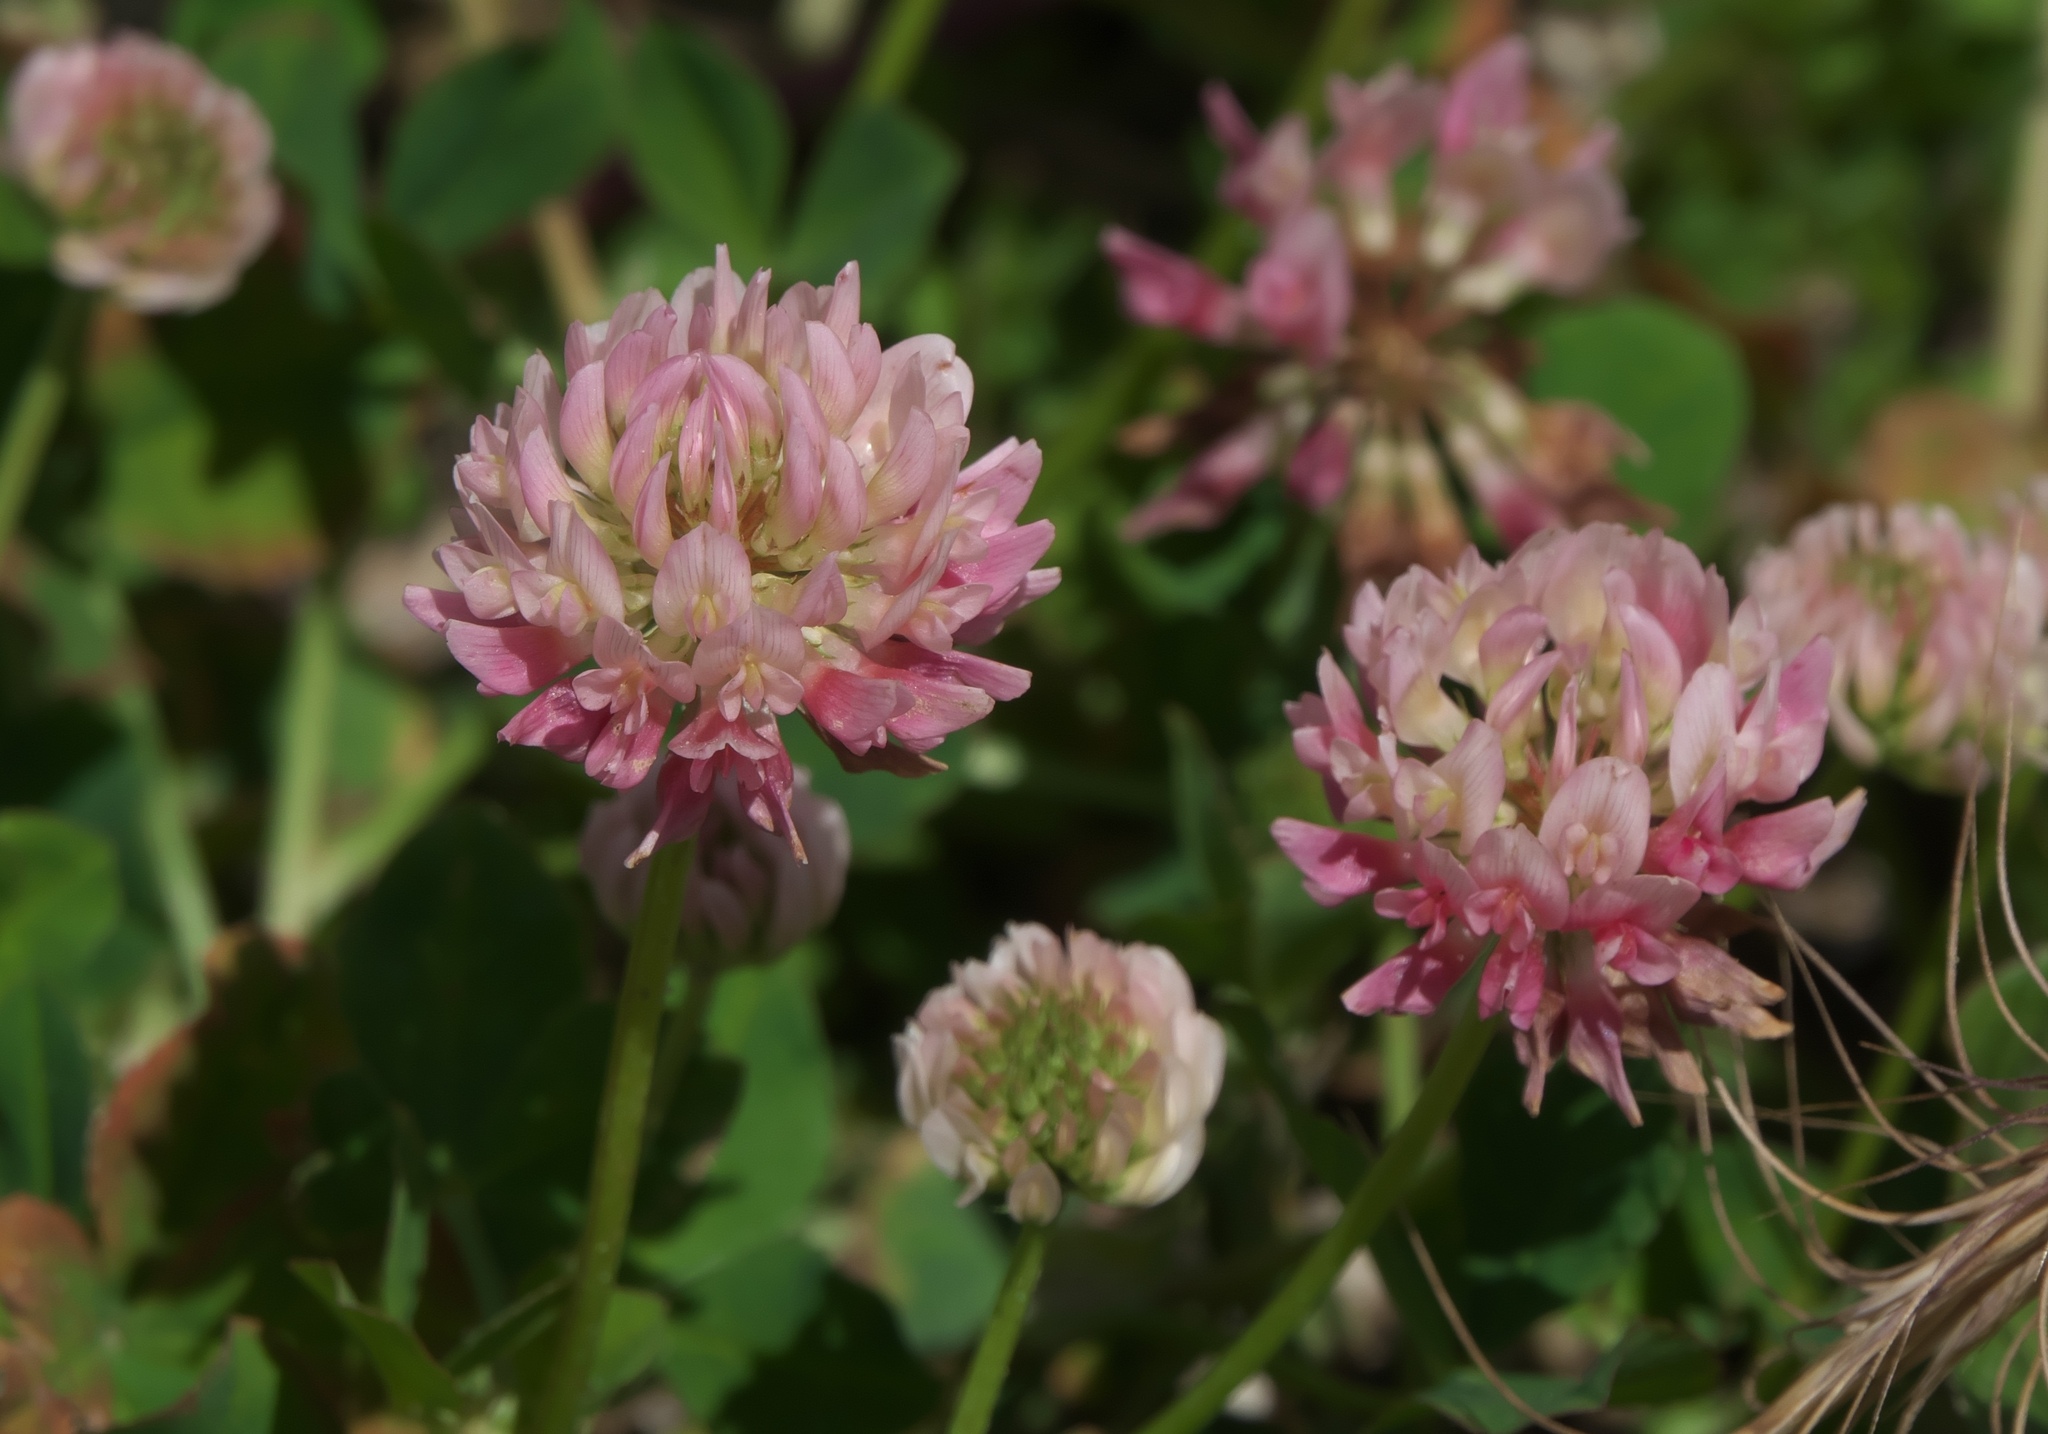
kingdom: Plantae
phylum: Tracheophyta
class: Magnoliopsida
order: Fabales
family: Fabaceae
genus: Trifolium
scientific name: Trifolium hybridum
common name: Alsike clover
